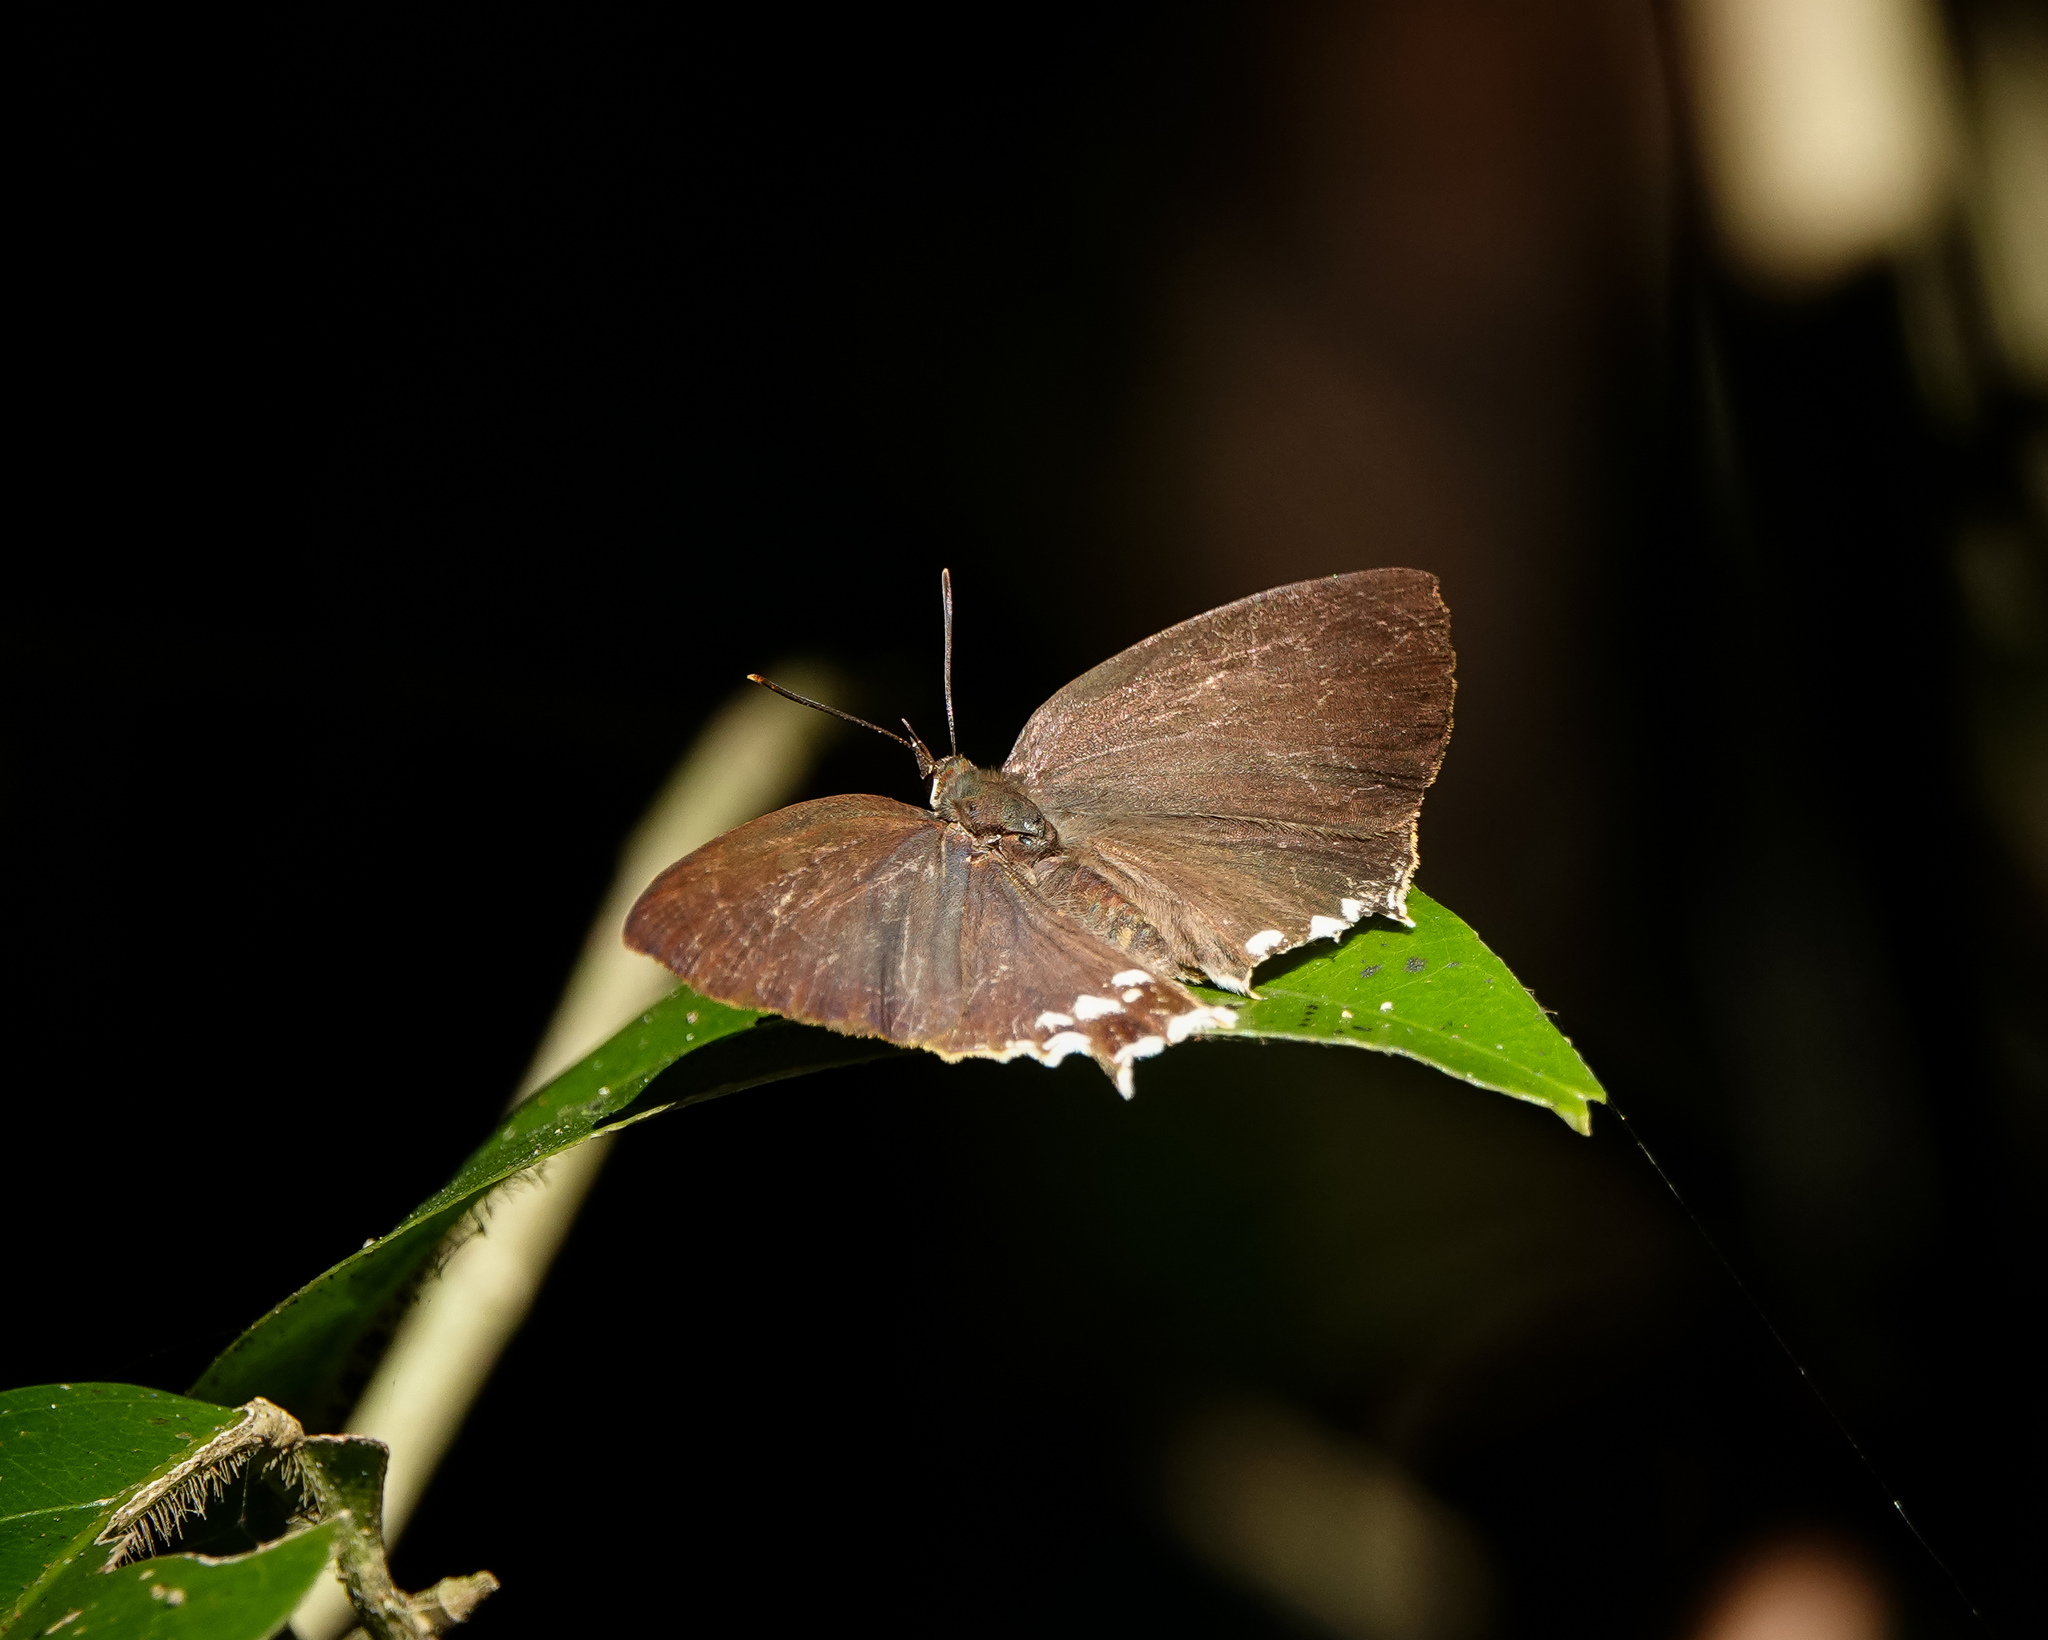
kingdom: Animalia
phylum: Arthropoda
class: Insecta
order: Lepidoptera
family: Lycaenidae
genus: Cheritra
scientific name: Cheritra freja
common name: Common imperial
